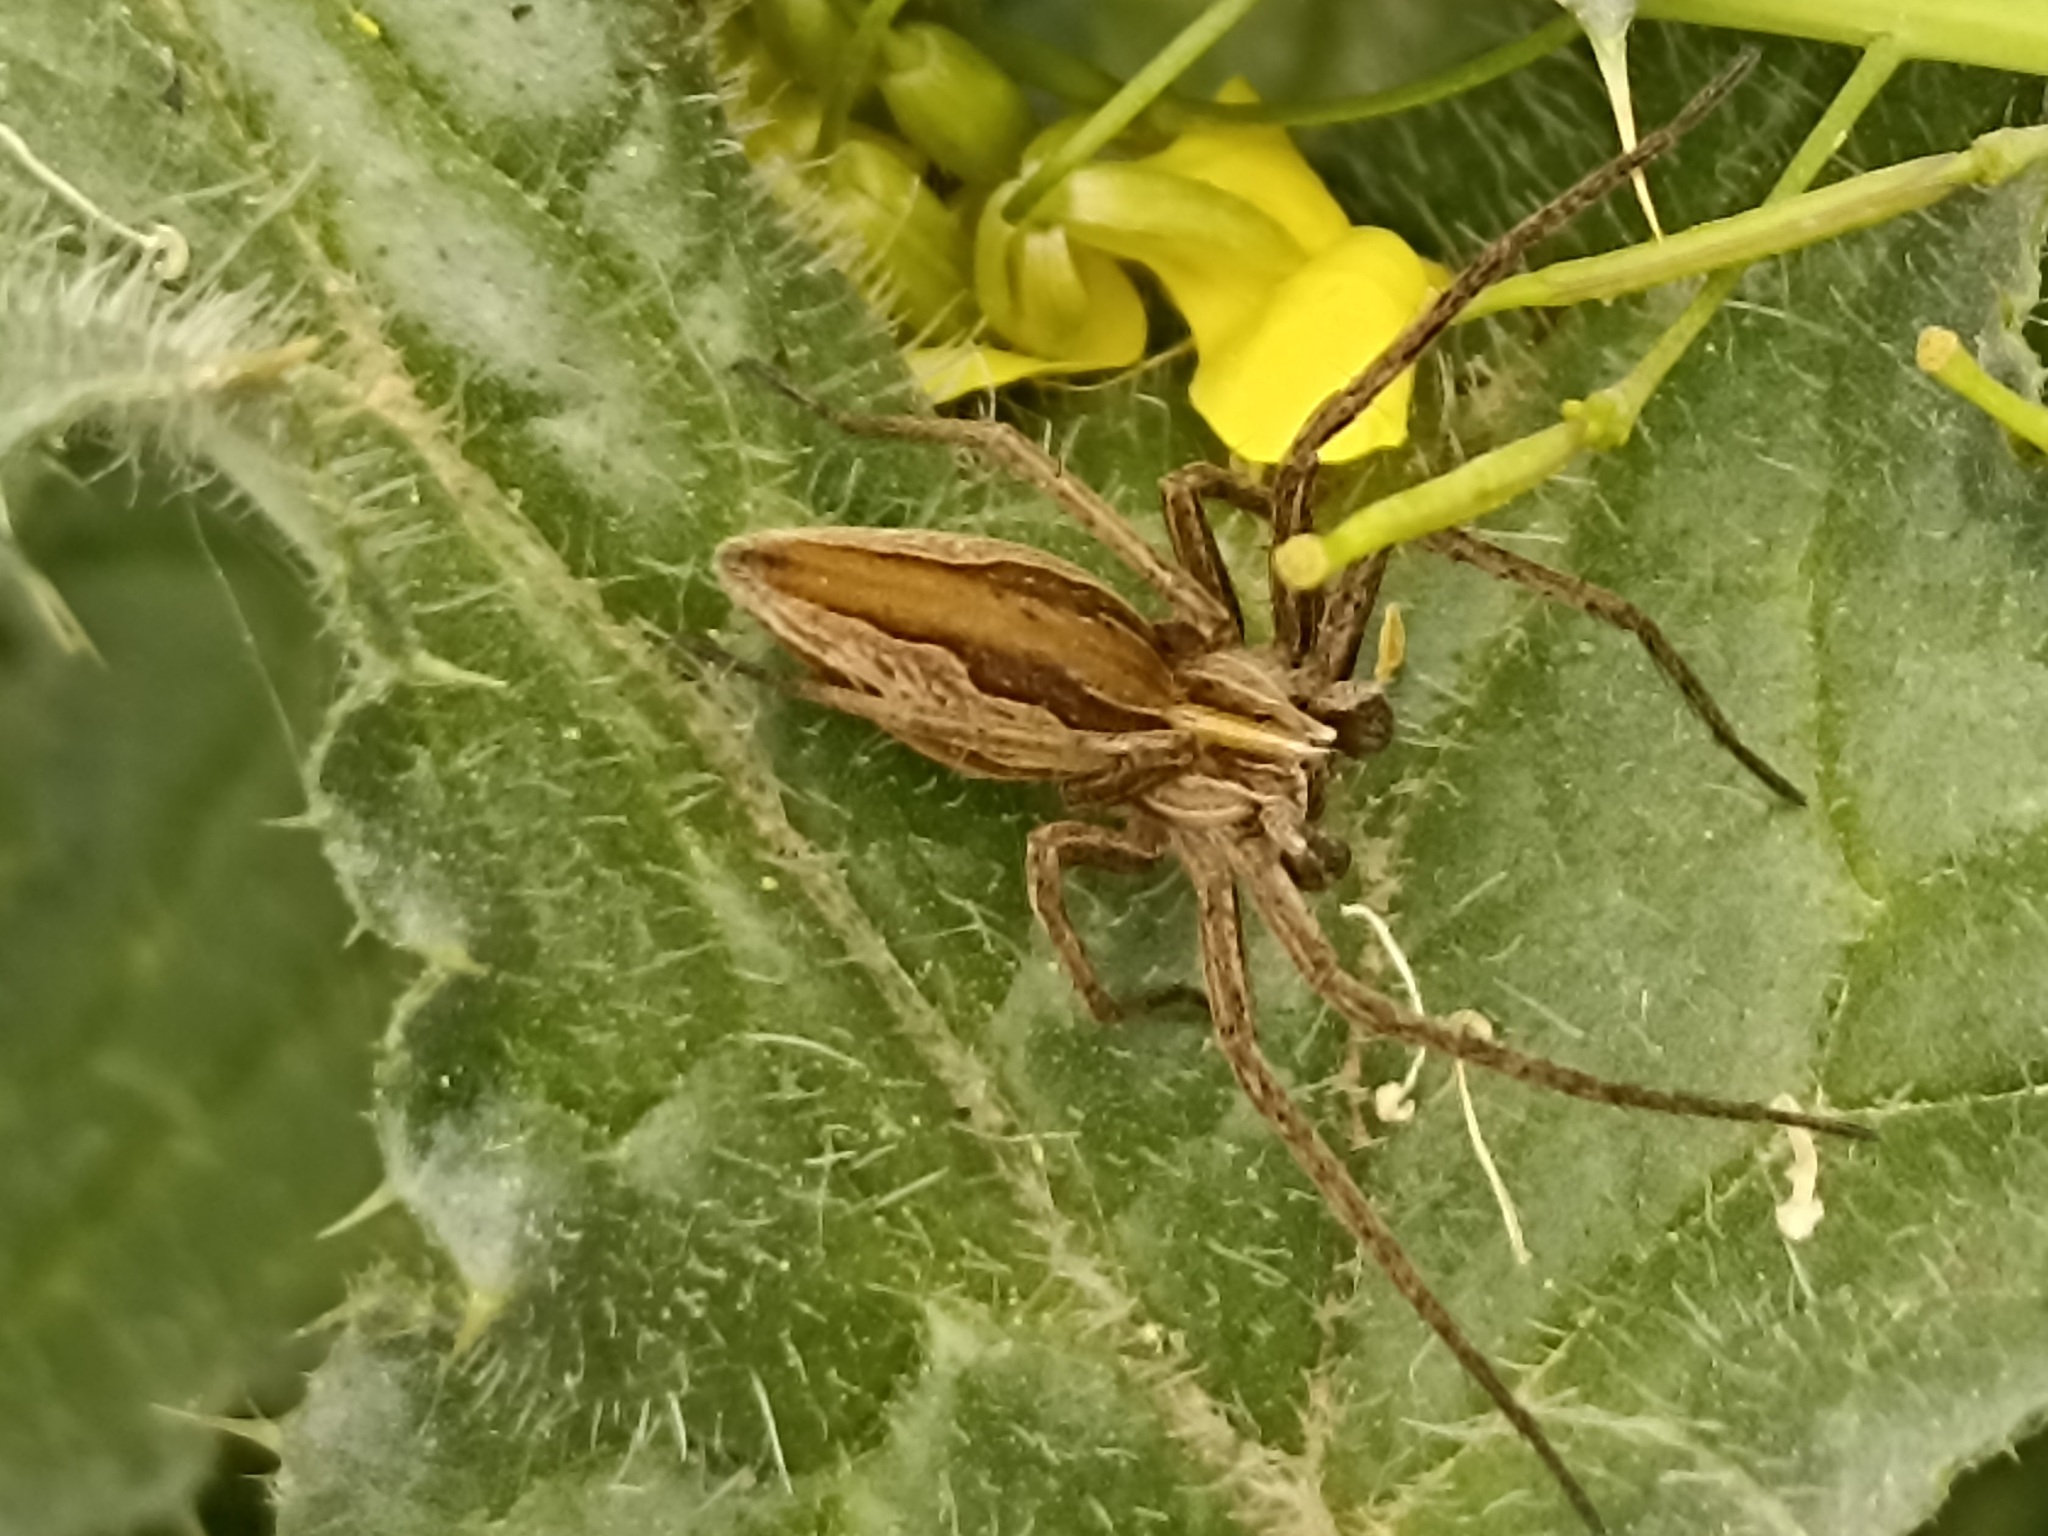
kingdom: Animalia
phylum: Arthropoda
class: Arachnida
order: Araneae
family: Pisauridae
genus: Pisaura
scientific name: Pisaura mirabilis
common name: Tent spider
